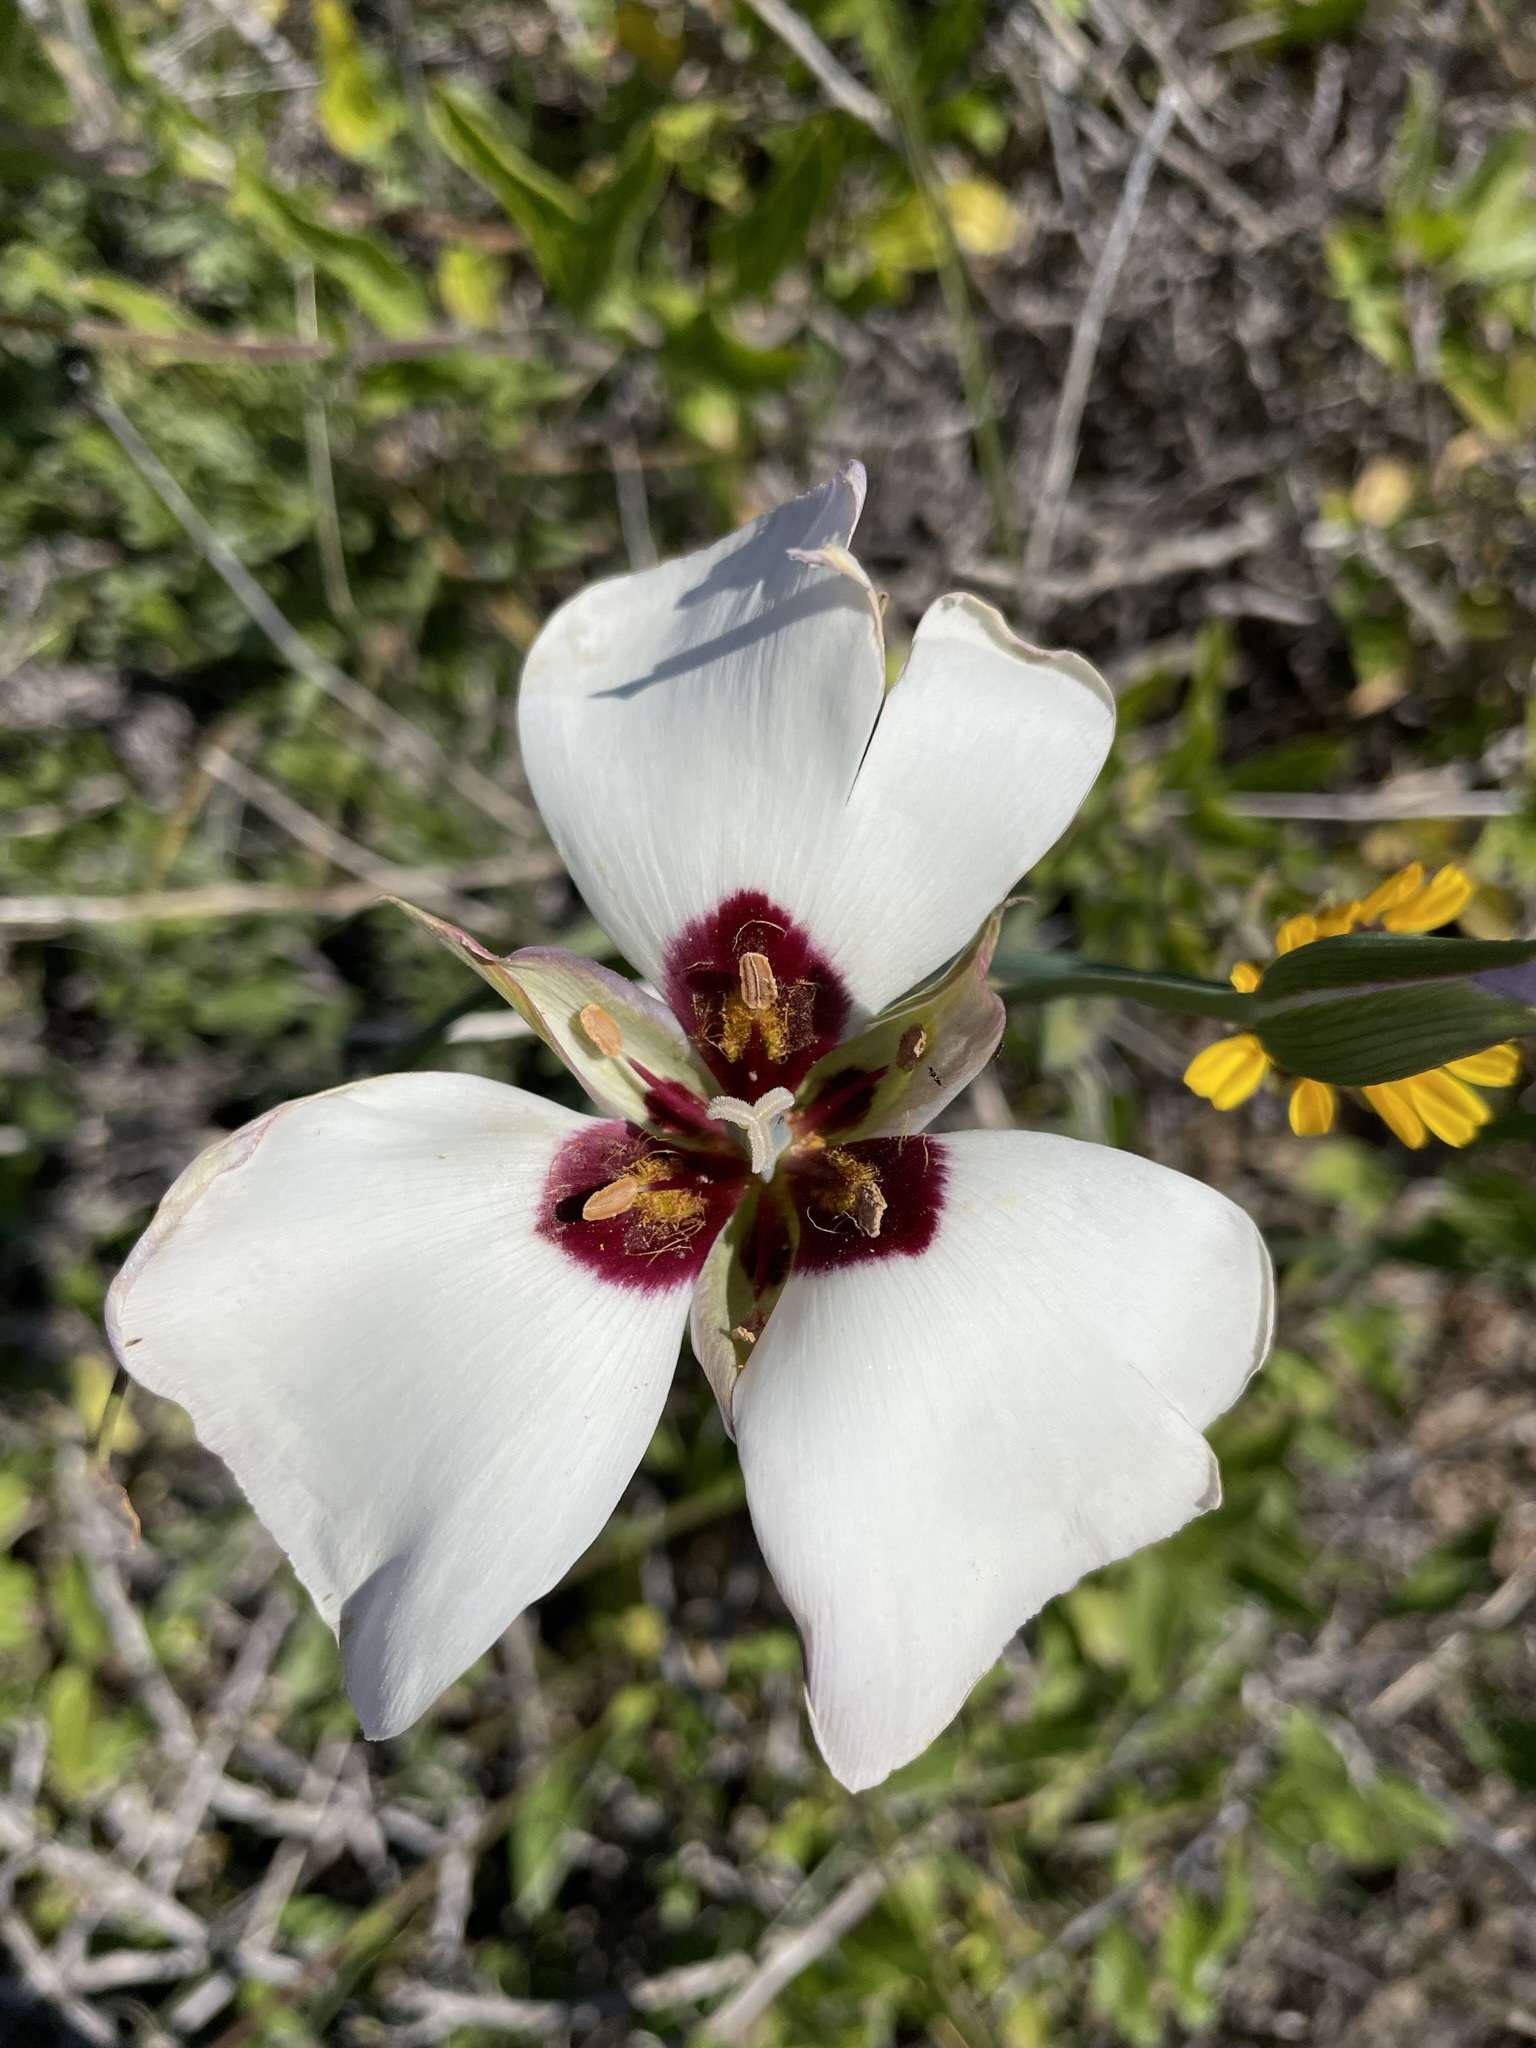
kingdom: Plantae
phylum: Tracheophyta
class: Liliopsida
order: Liliales
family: Liliaceae
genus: Calochortus
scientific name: Calochortus catalinae
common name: Catalina mariposa-lily
